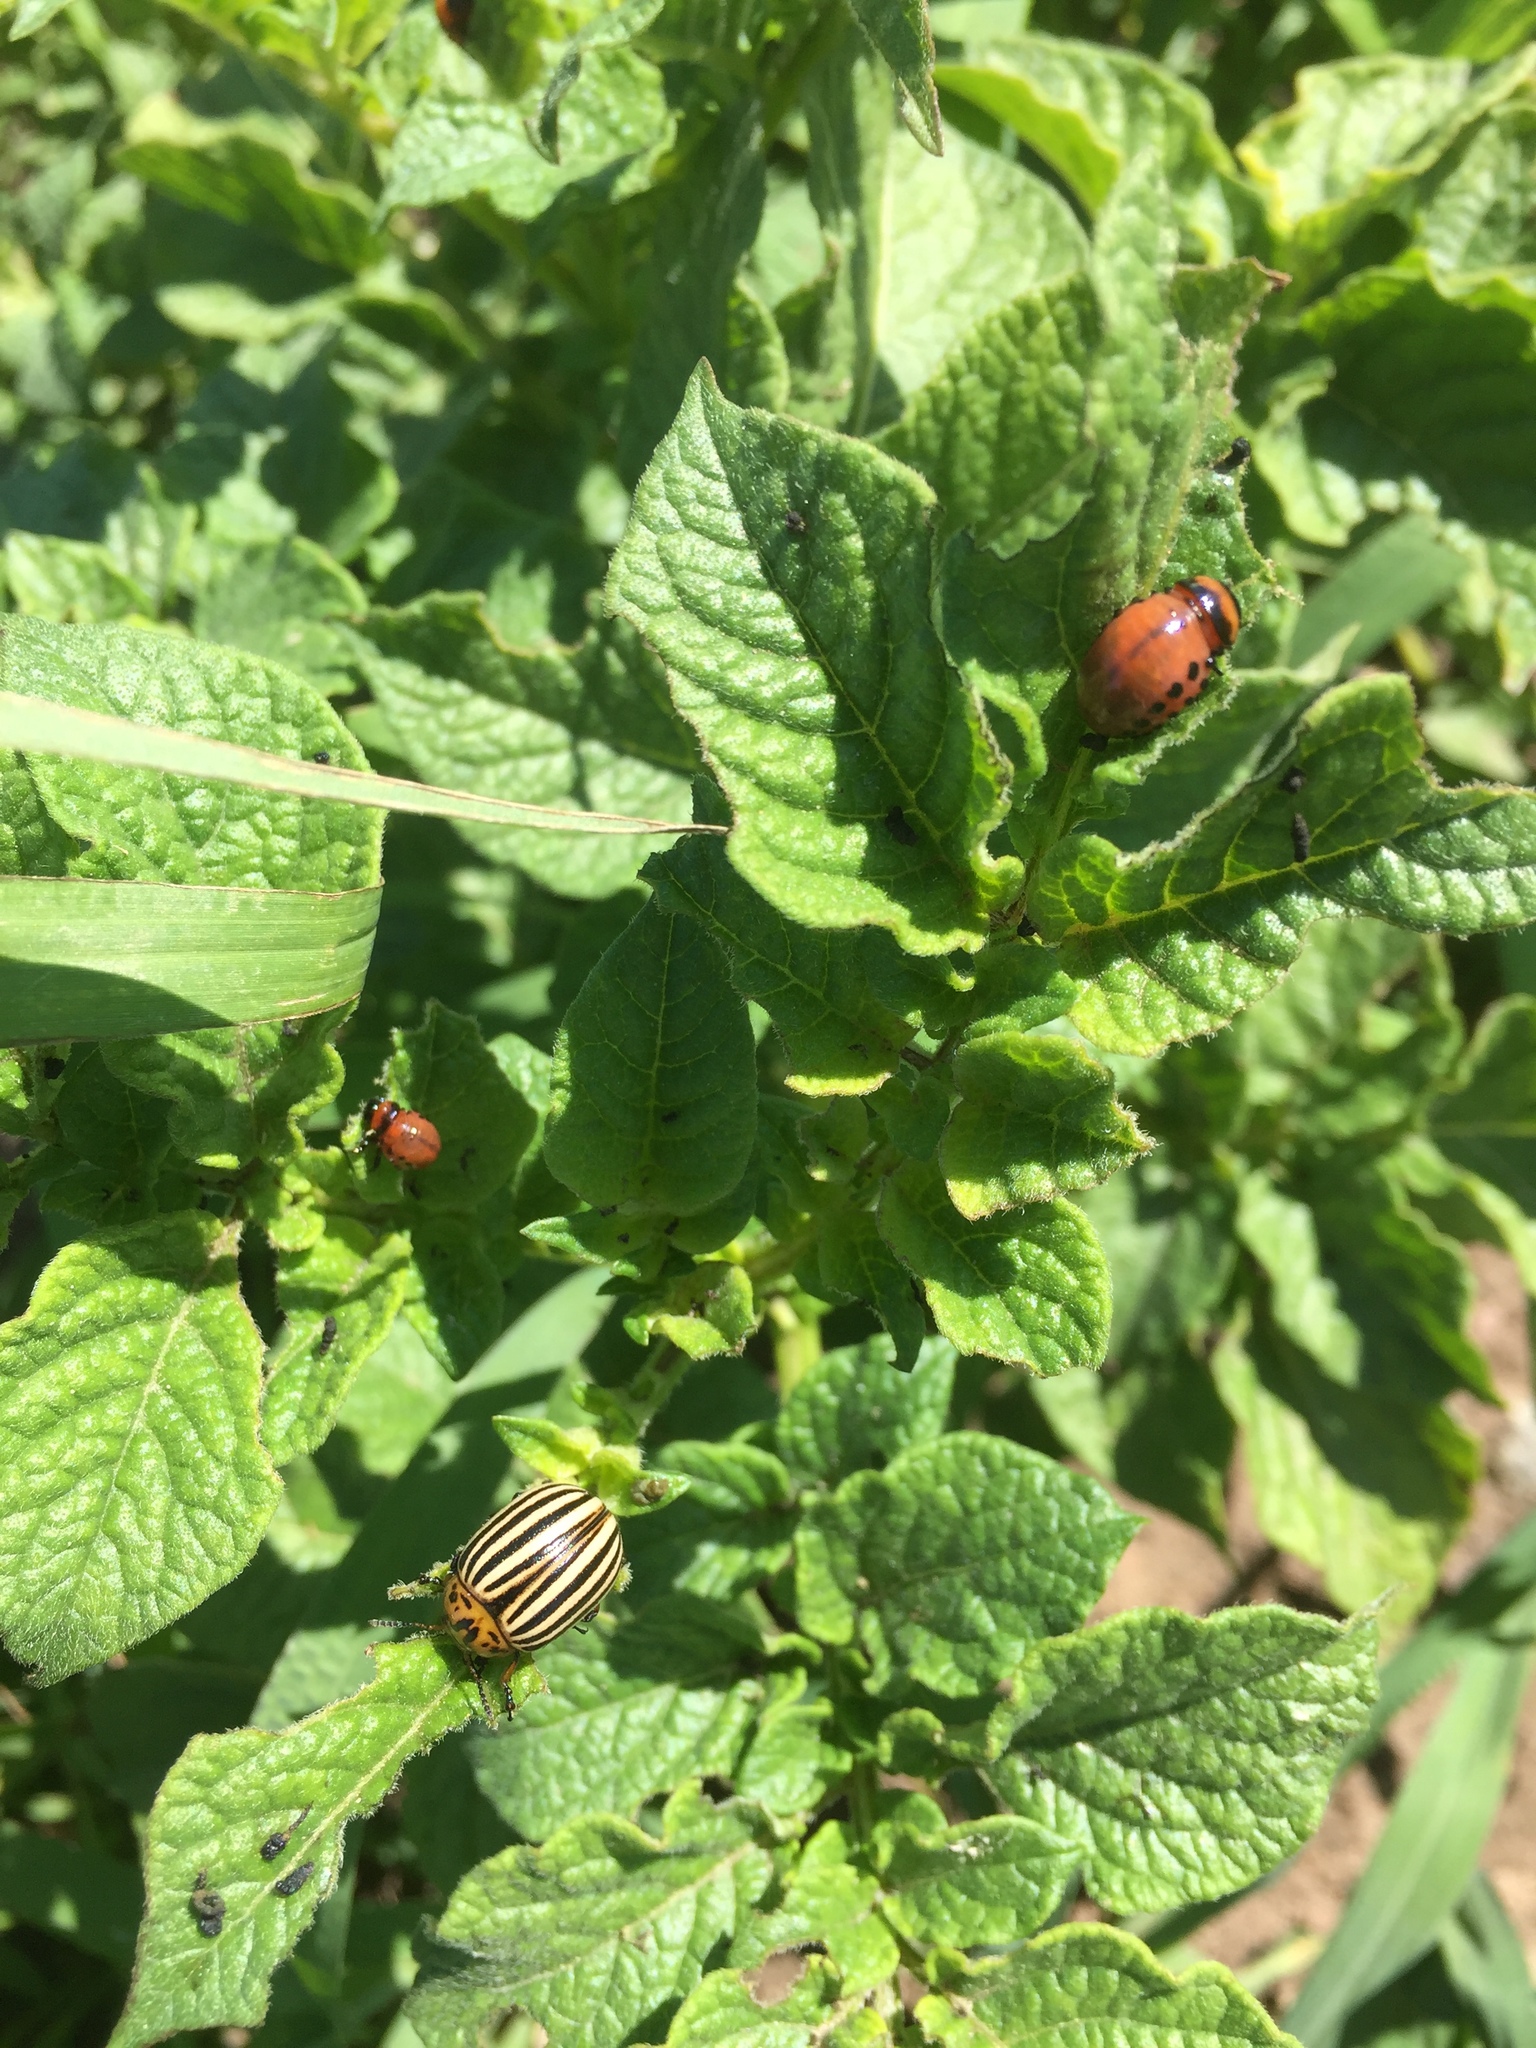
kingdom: Animalia
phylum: Arthropoda
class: Insecta
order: Coleoptera
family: Chrysomelidae
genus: Leptinotarsa
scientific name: Leptinotarsa decemlineata
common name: Colorado potato beetle
